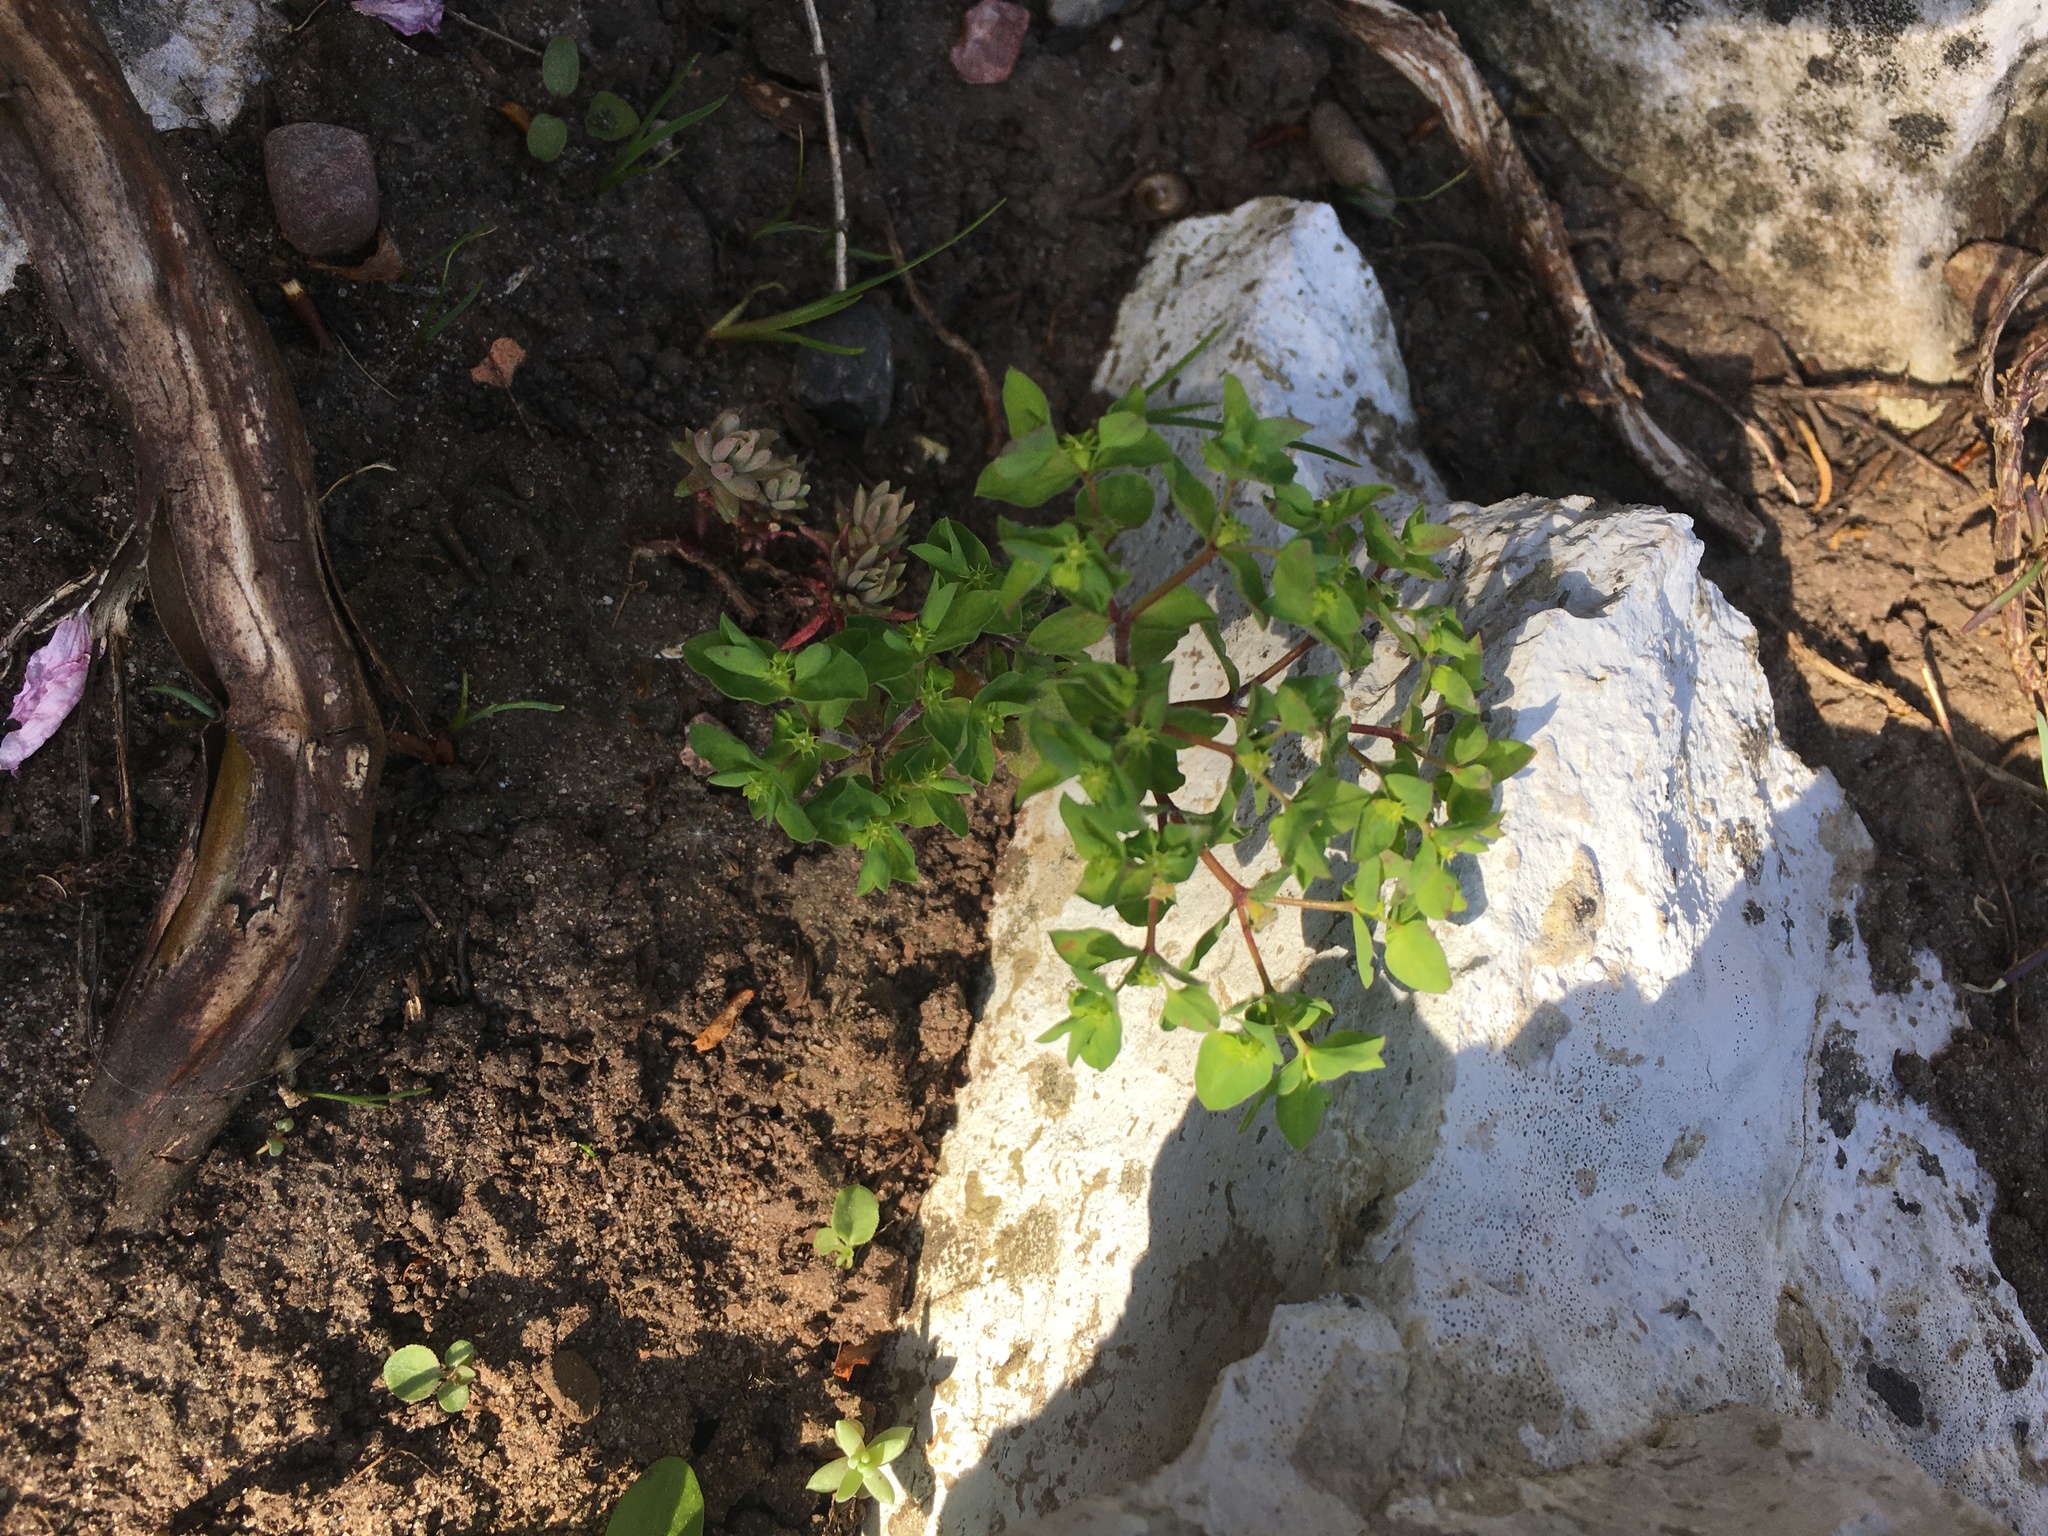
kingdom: Plantae
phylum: Tracheophyta
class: Magnoliopsida
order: Malpighiales
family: Euphorbiaceae
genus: Euphorbia
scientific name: Euphorbia peplus
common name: Petty spurge
